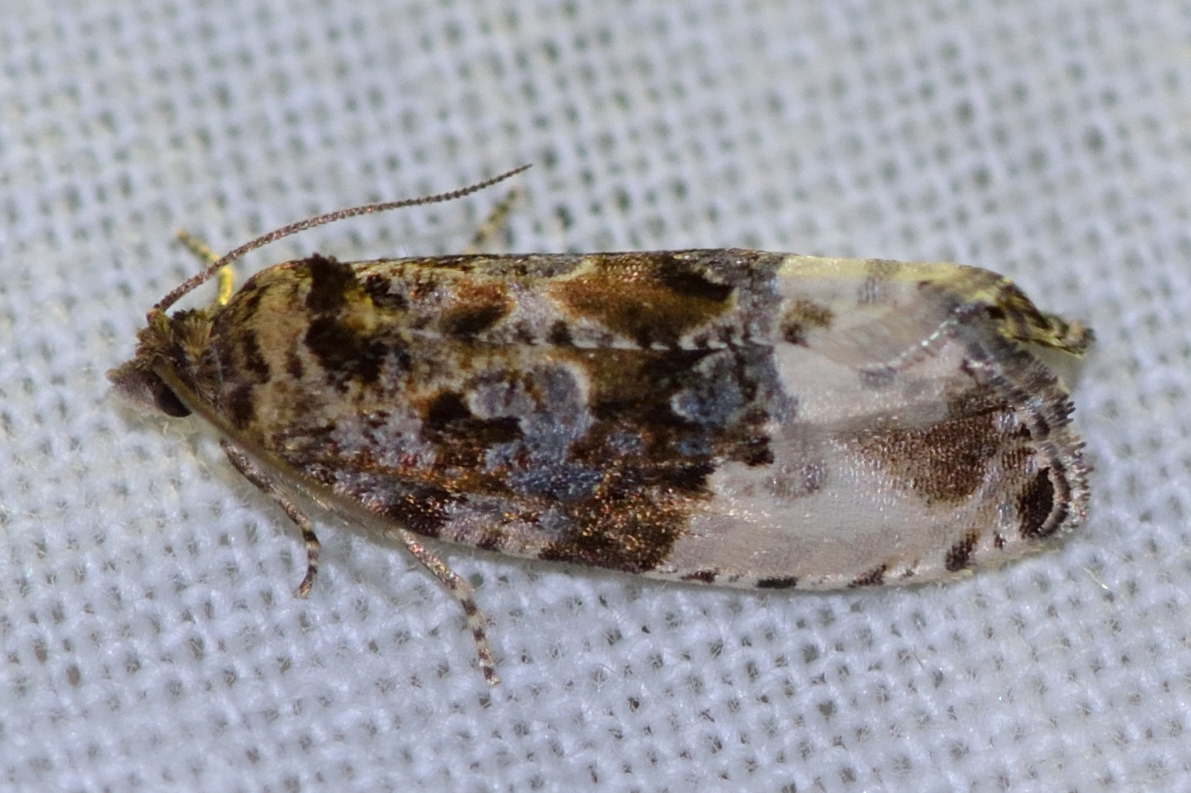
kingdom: Animalia
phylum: Arthropoda
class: Insecta
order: Lepidoptera
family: Tortricidae
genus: Hedya
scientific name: Hedya nubiferana
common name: Marbled orchard tortrix
